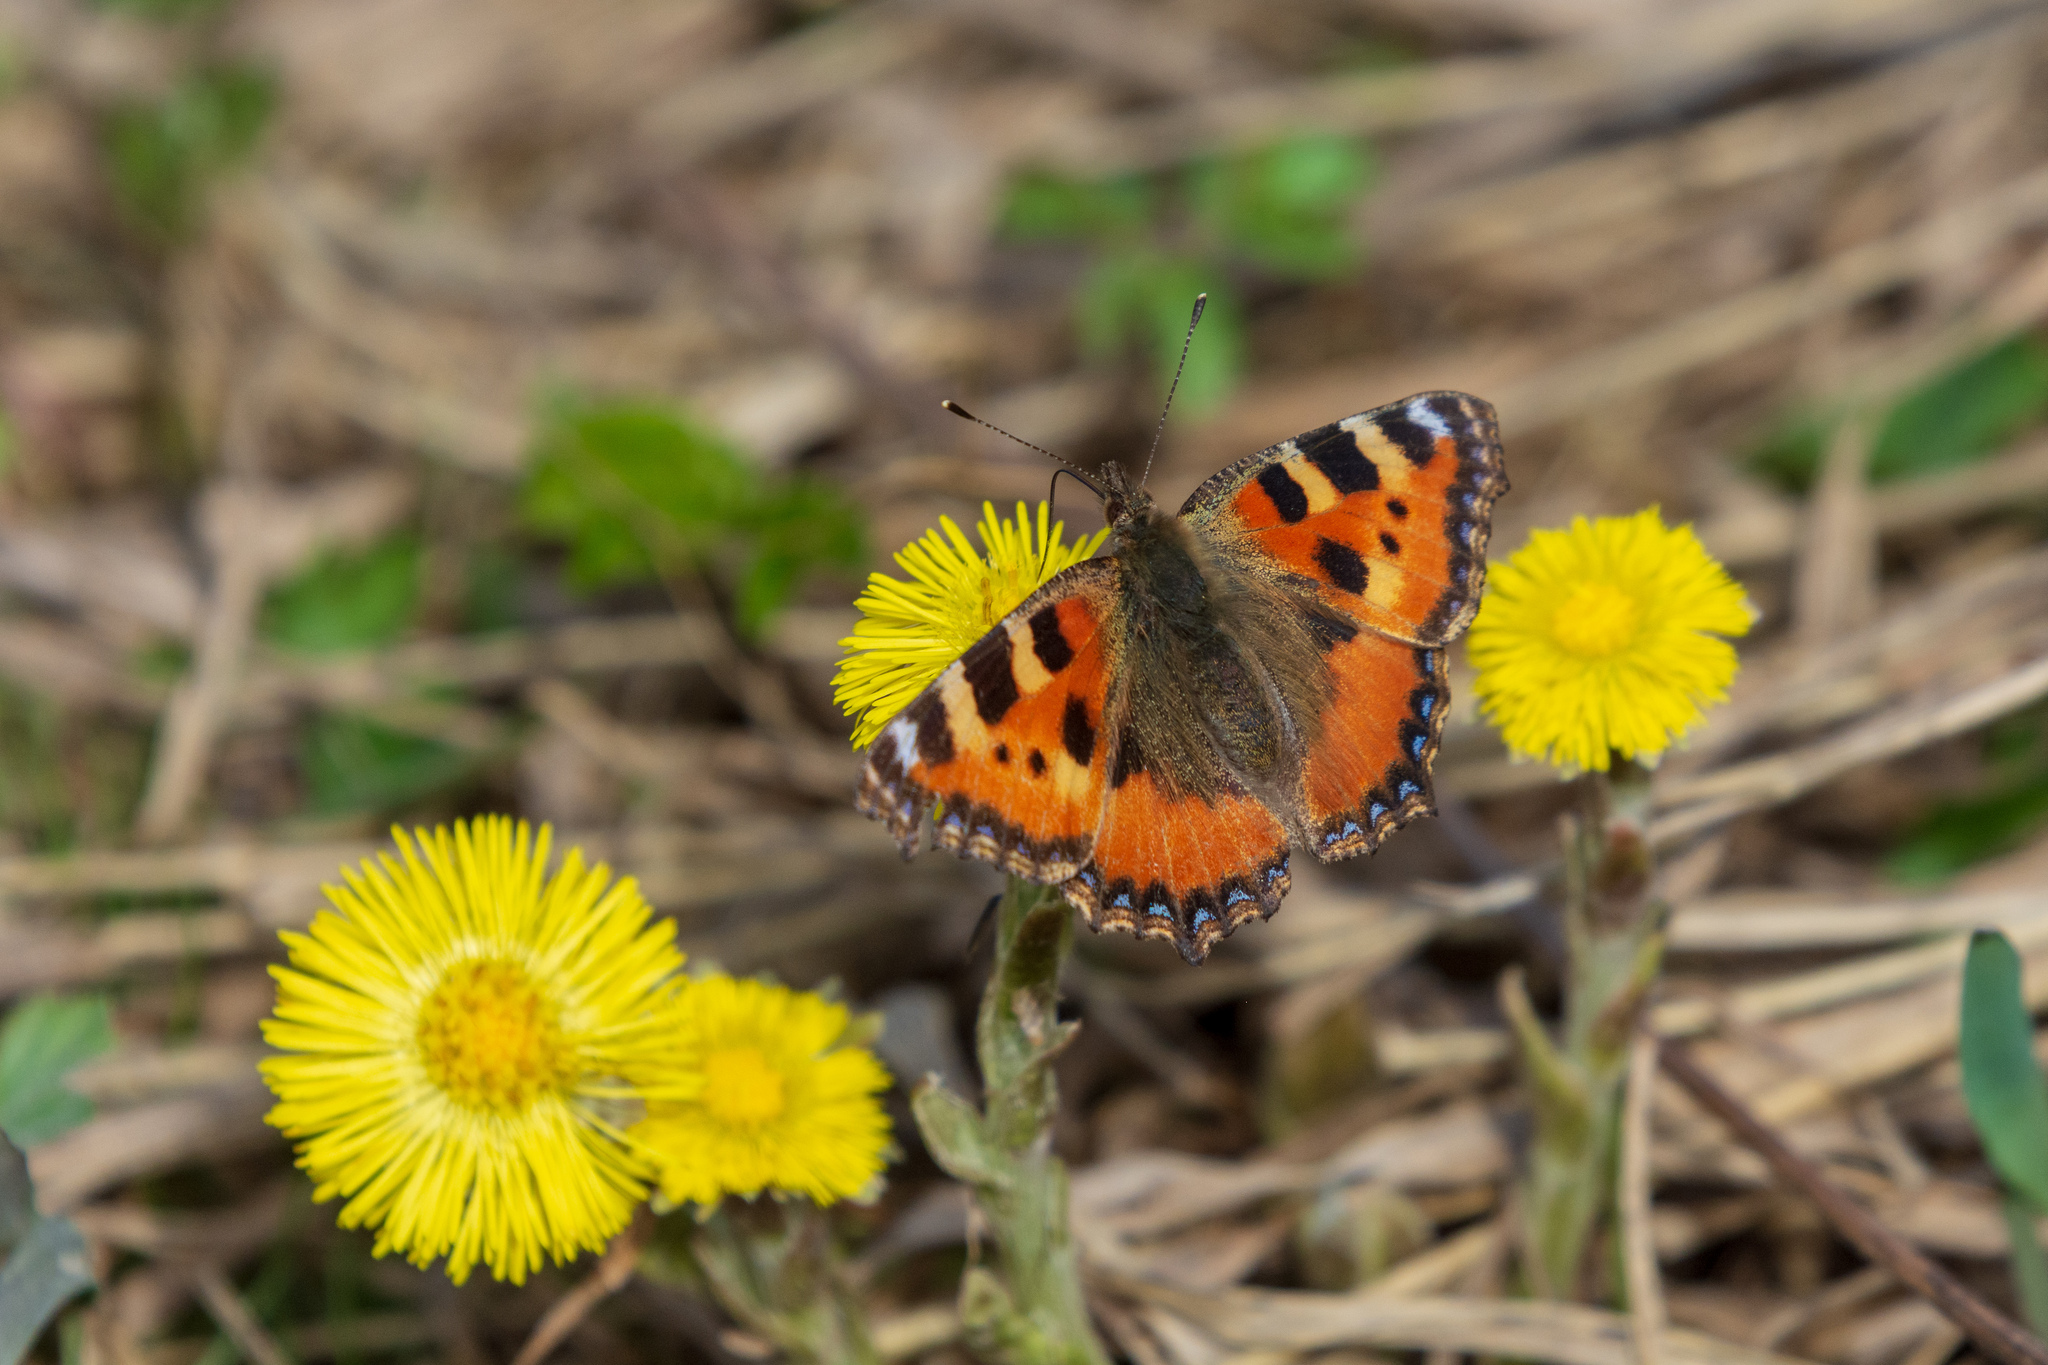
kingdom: Animalia
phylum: Arthropoda
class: Insecta
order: Lepidoptera
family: Nymphalidae
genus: Aglais
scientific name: Aglais urticae
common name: Small tortoiseshell
